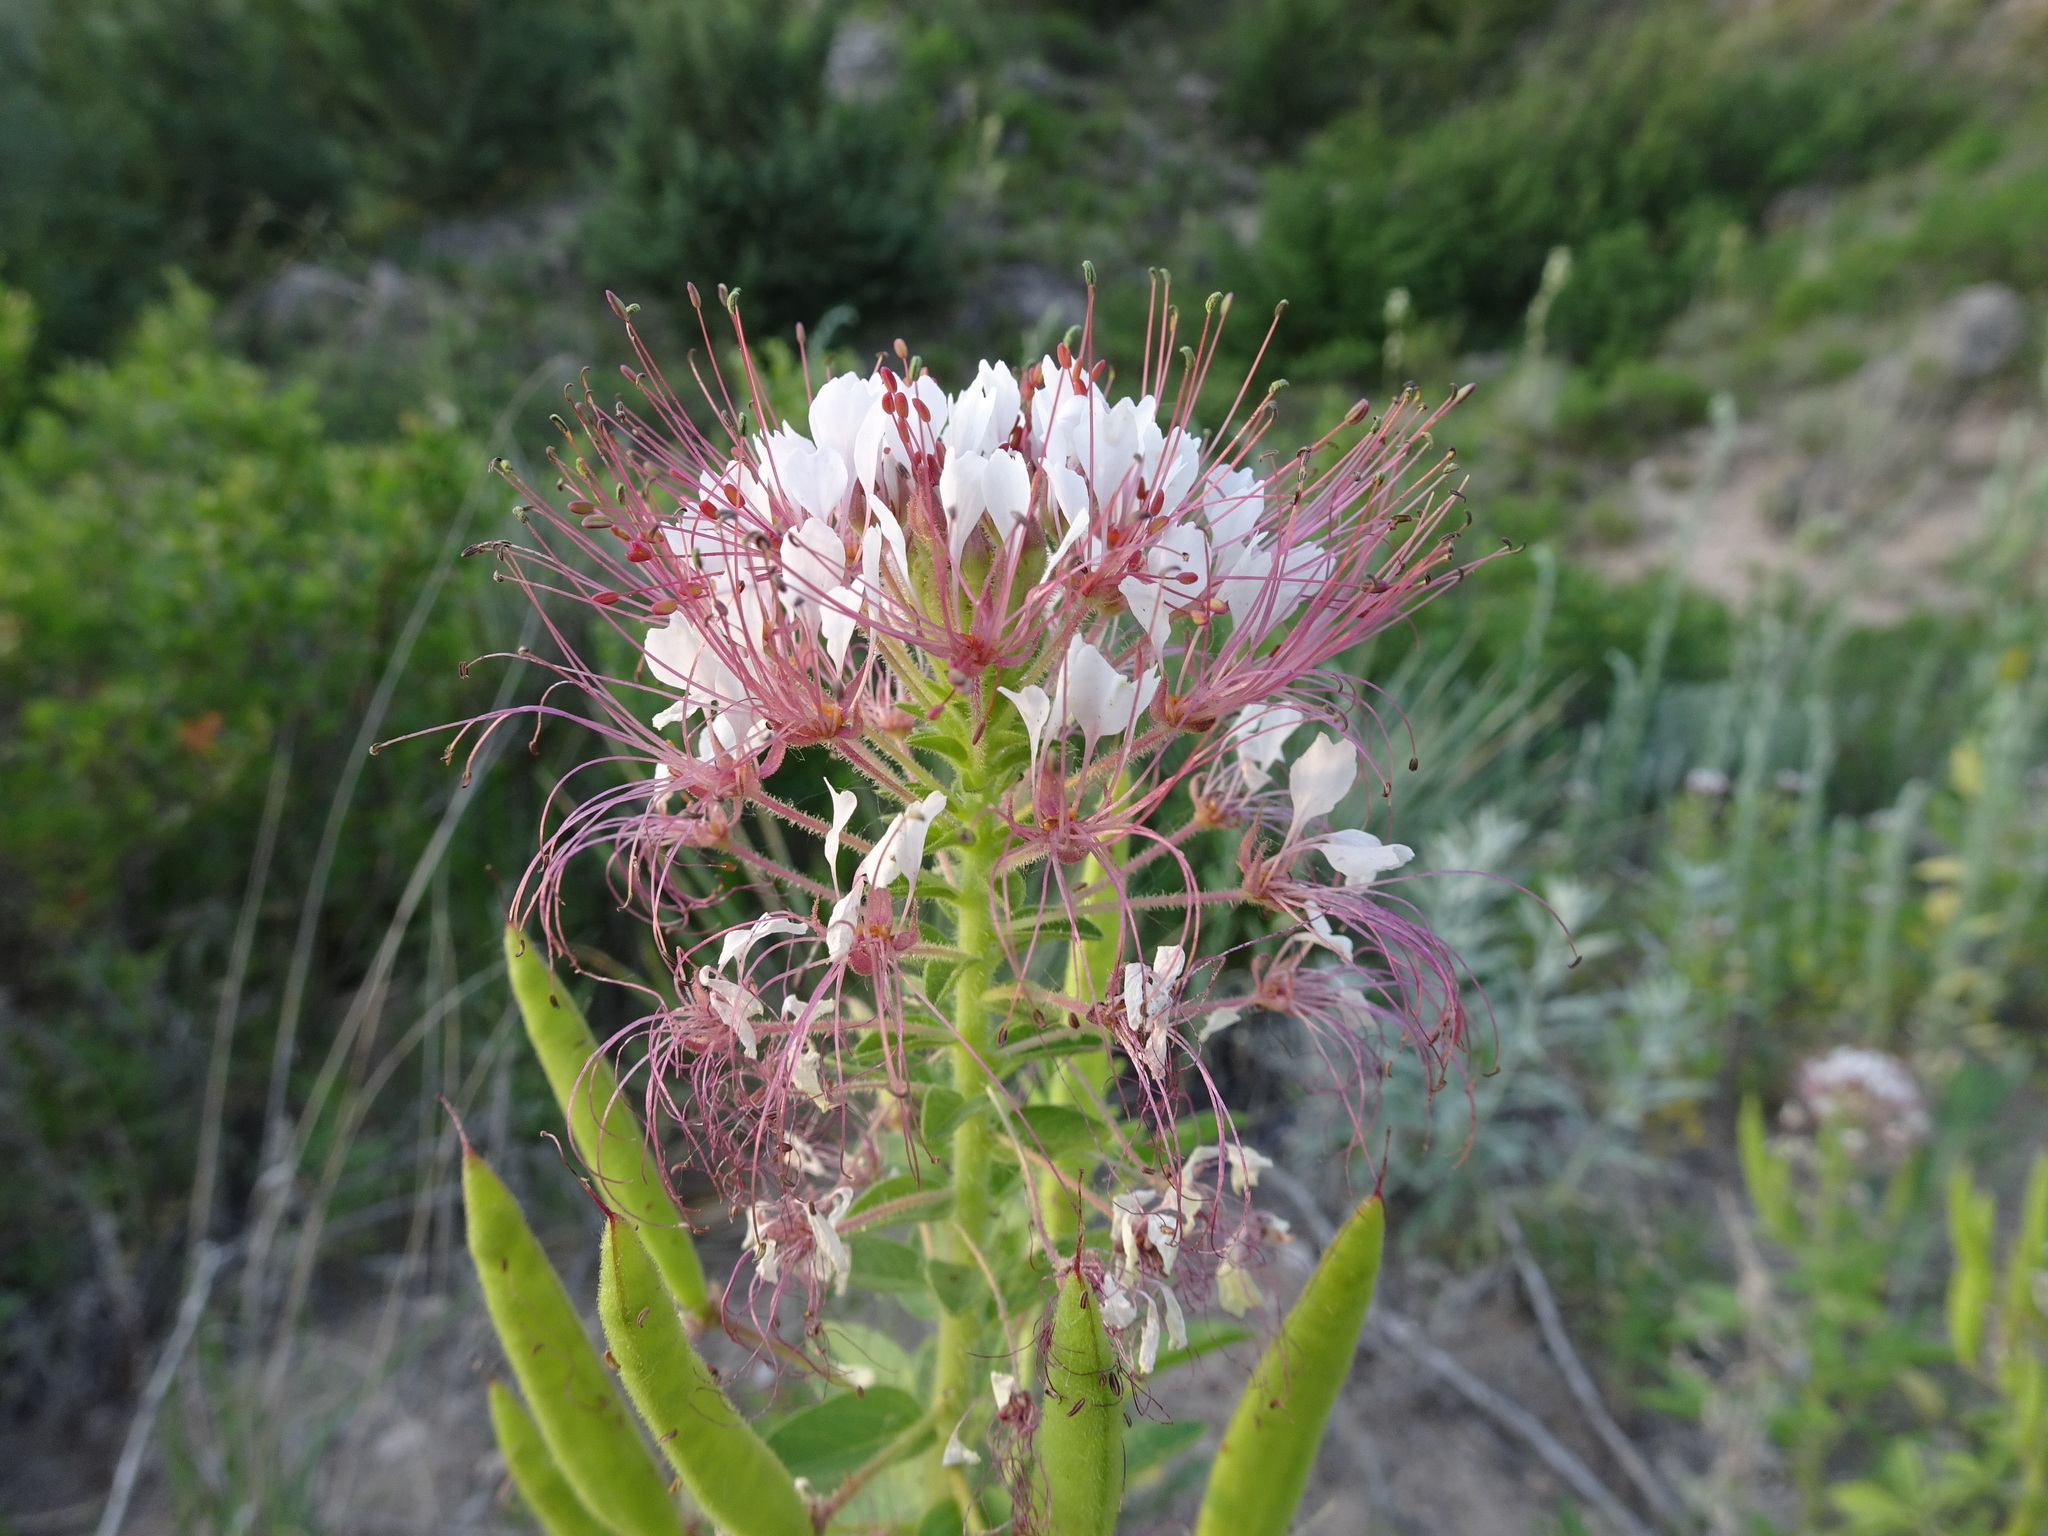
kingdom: Plantae
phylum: Tracheophyta
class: Magnoliopsida
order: Brassicales
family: Cleomaceae
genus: Polanisia
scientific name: Polanisia dodecandra
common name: Clammyweed
